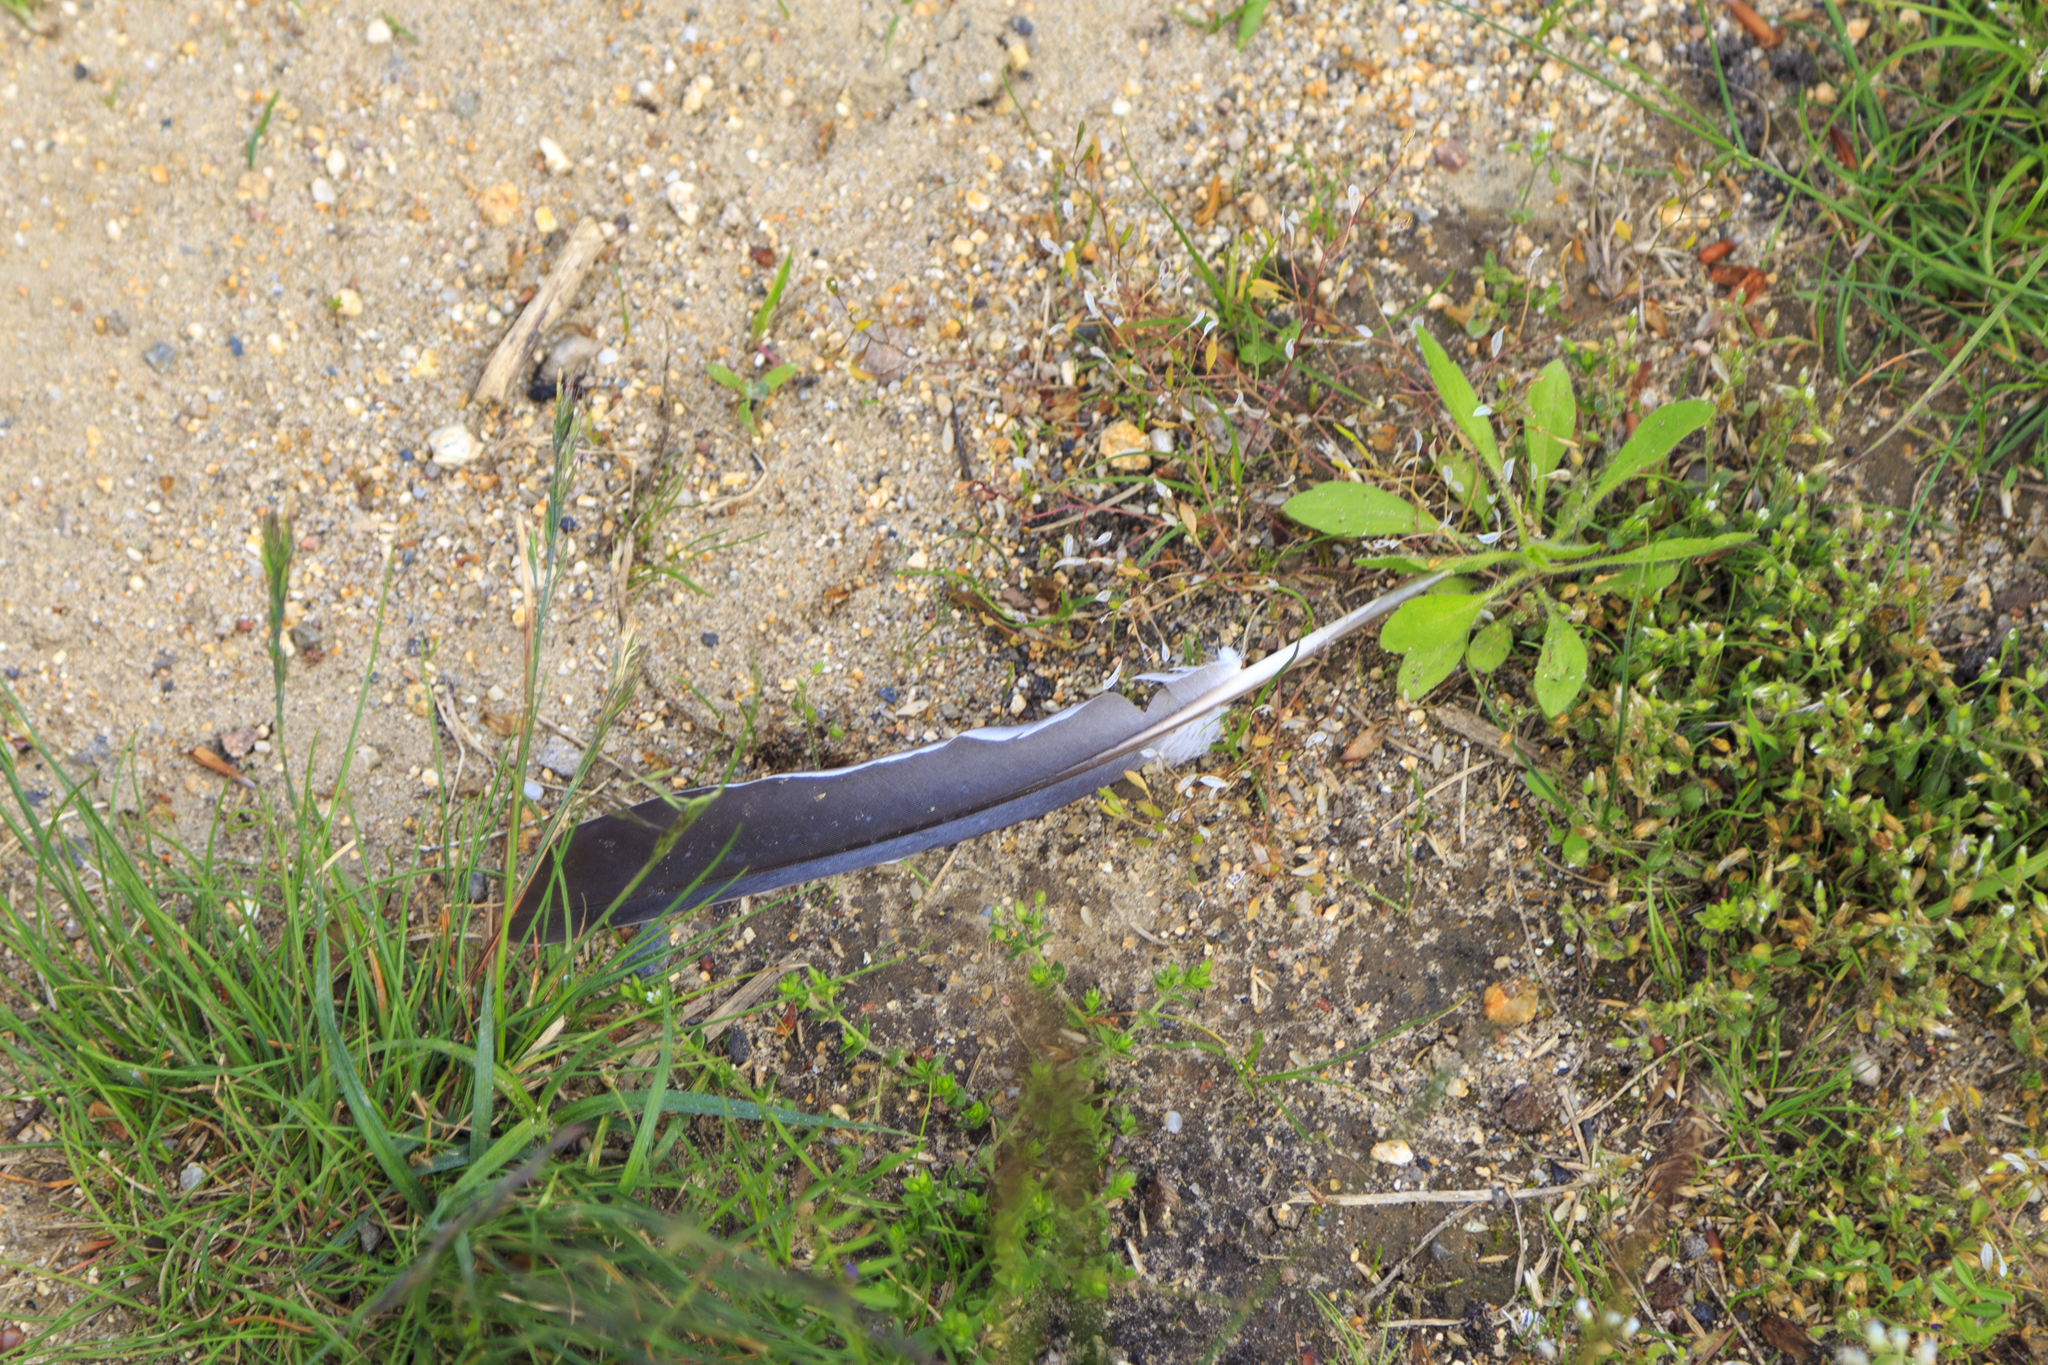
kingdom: Animalia
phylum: Chordata
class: Aves
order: Columbiformes
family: Columbidae
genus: Columba
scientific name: Columba palumbus
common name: Common wood pigeon
